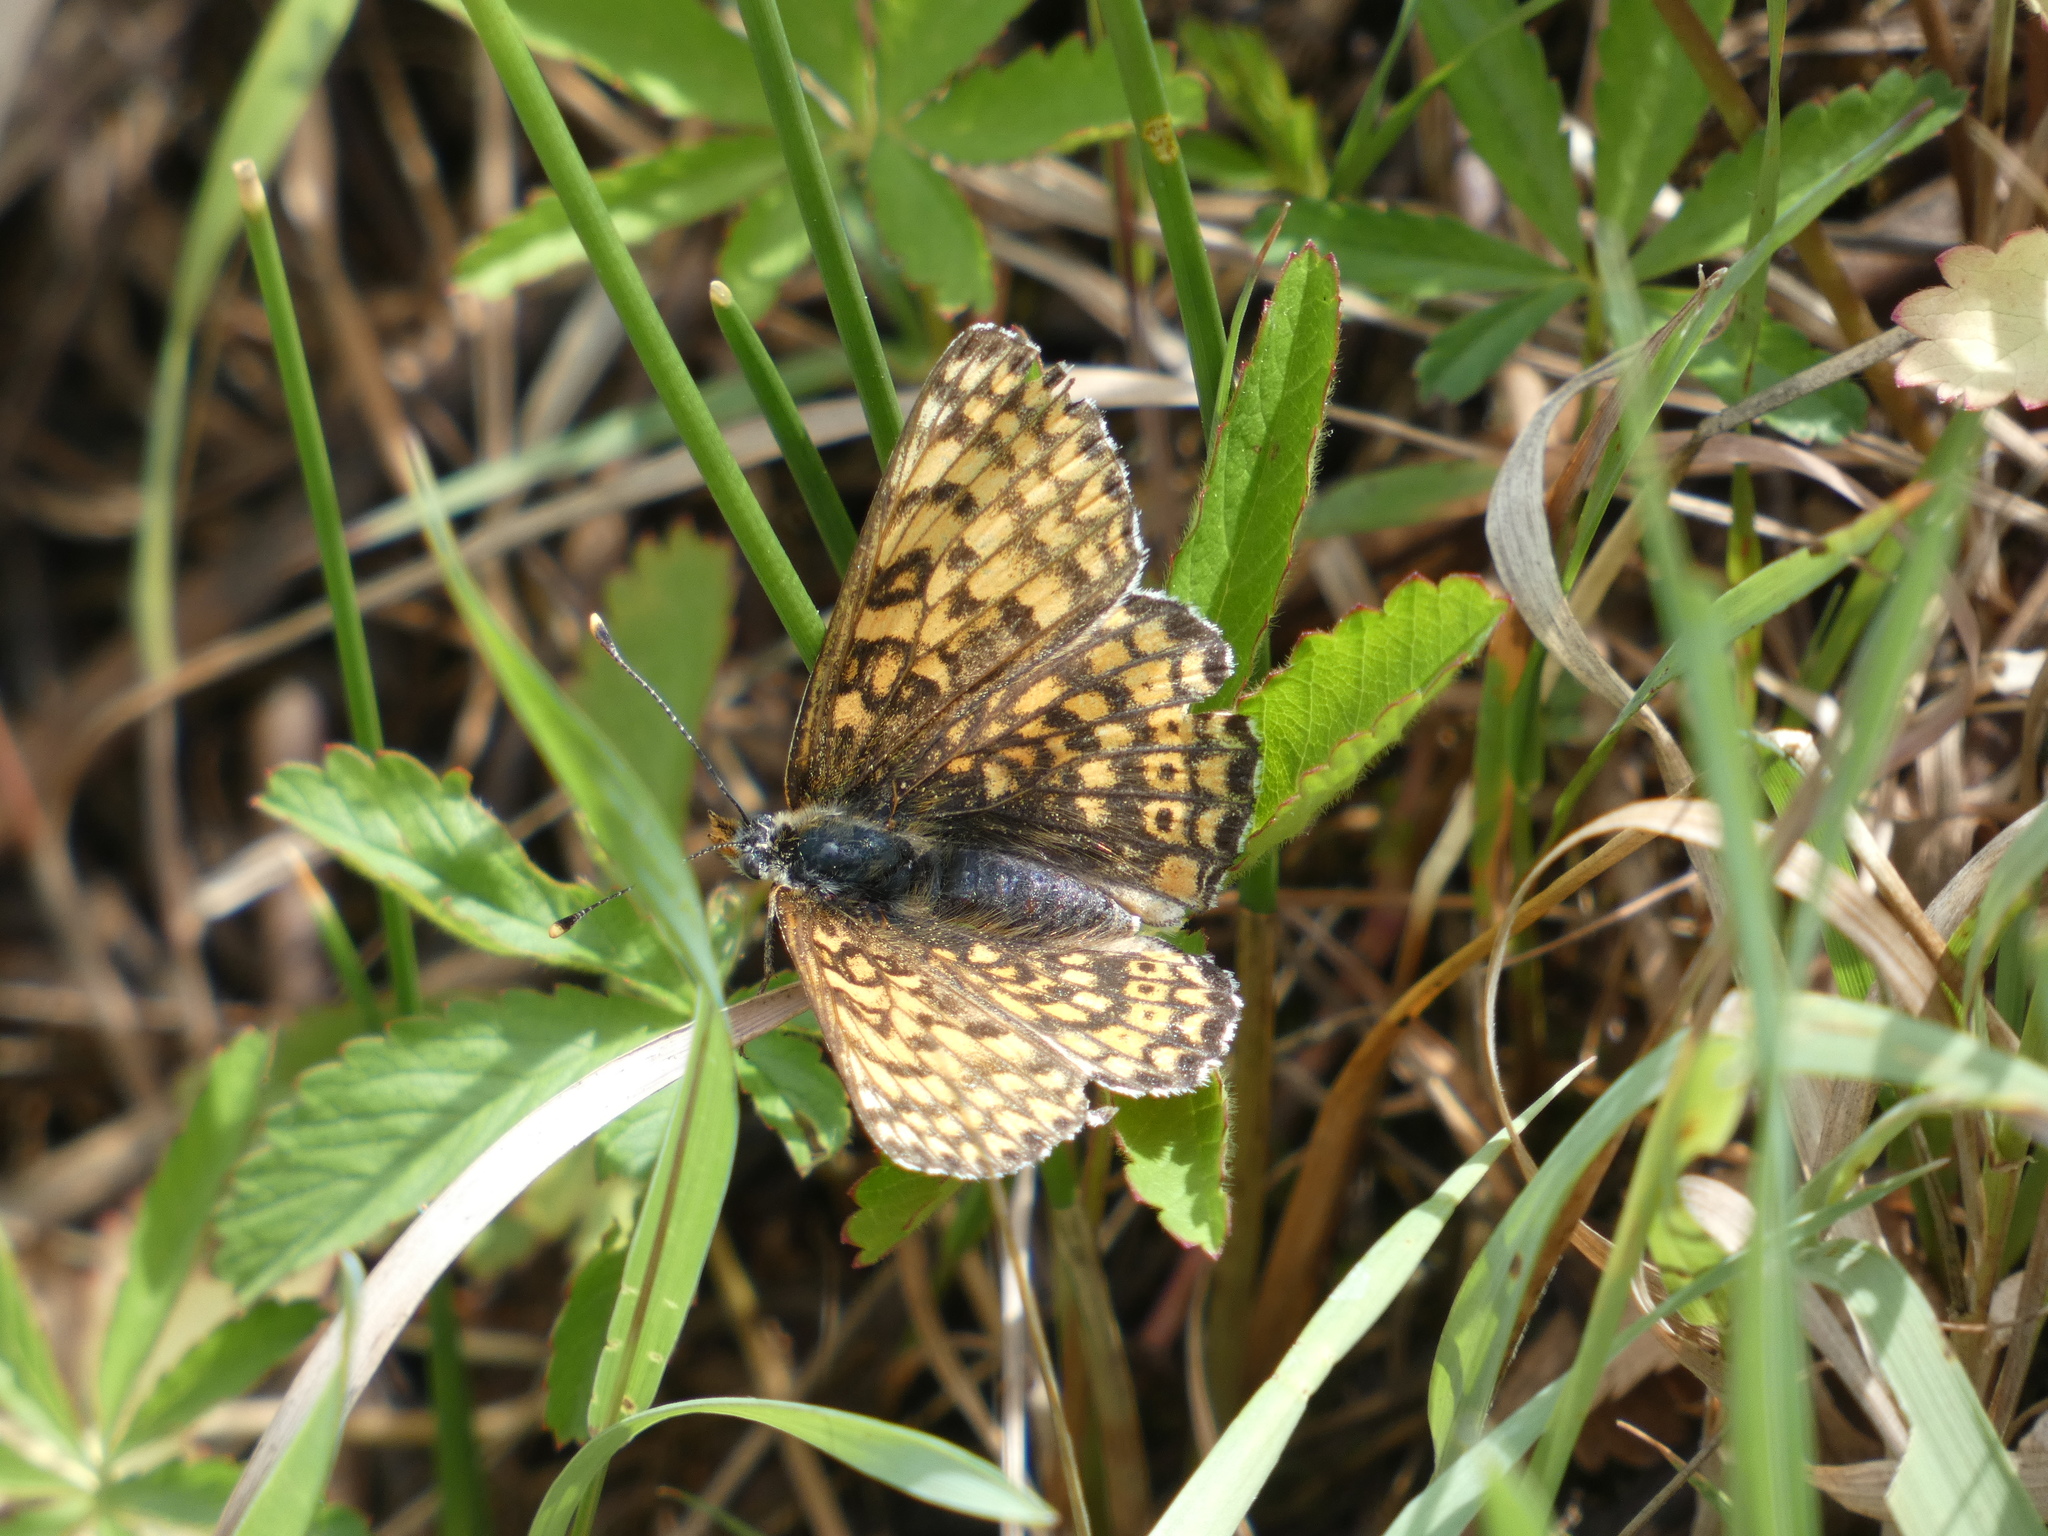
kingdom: Animalia
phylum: Arthropoda
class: Insecta
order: Lepidoptera
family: Nymphalidae
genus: Melitaea
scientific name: Melitaea cinxia
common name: Glanville fritillary
